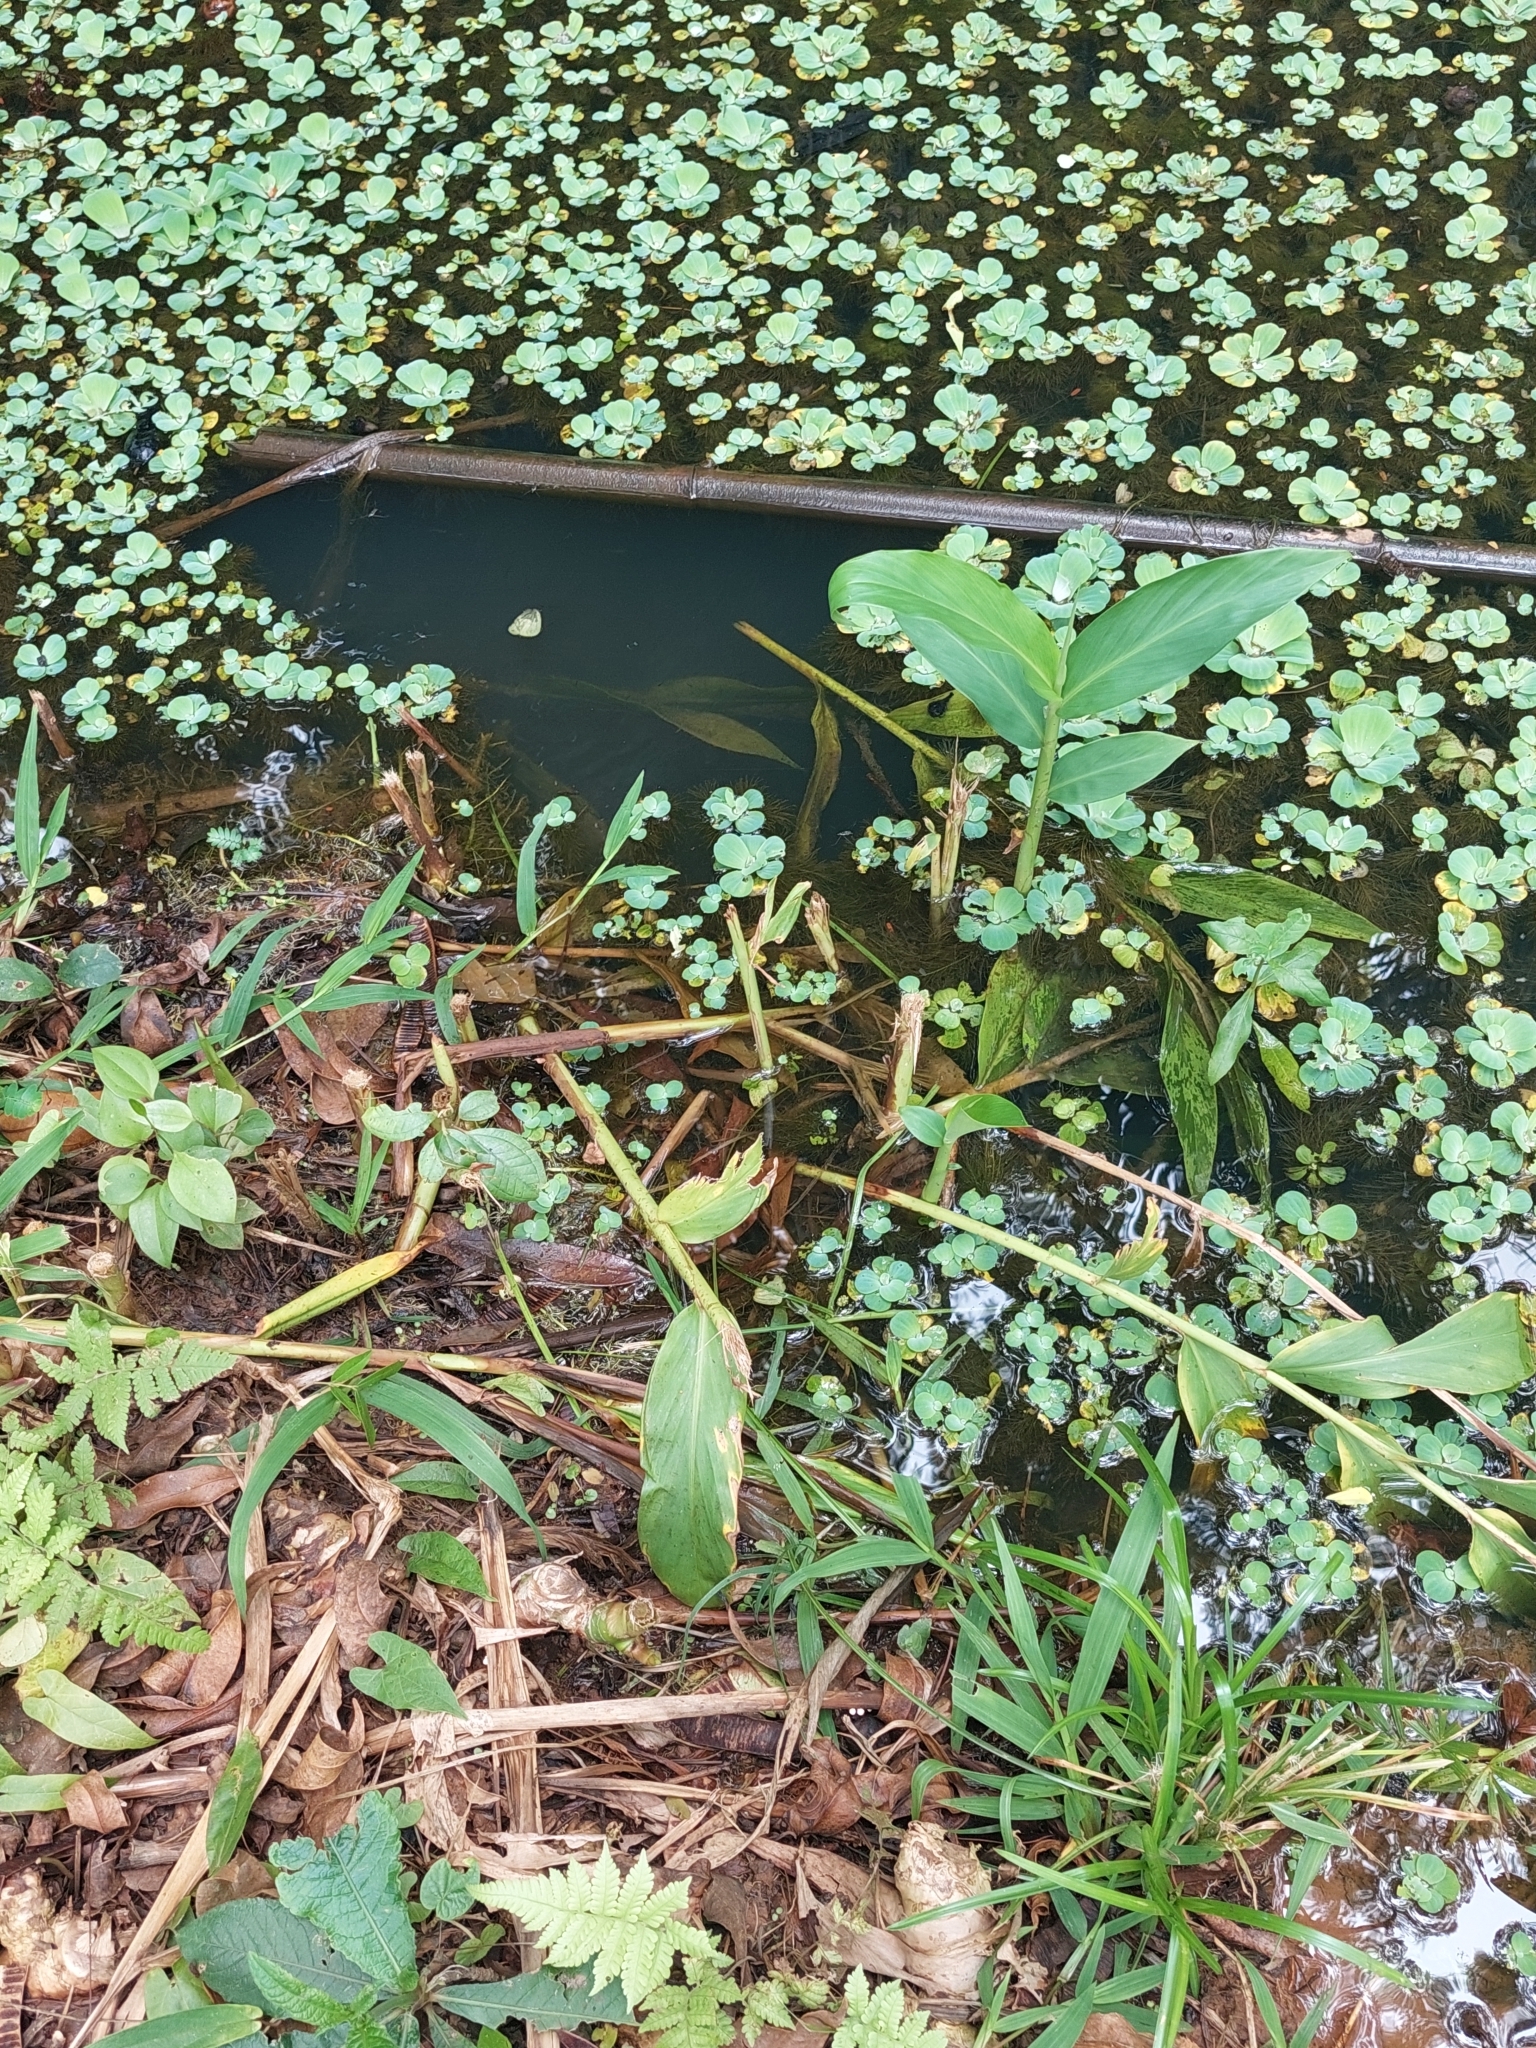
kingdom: Plantae
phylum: Tracheophyta
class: Liliopsida
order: Zingiberales
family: Zingiberaceae
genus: Hedychium
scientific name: Hedychium coronarium
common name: White garland-lily
